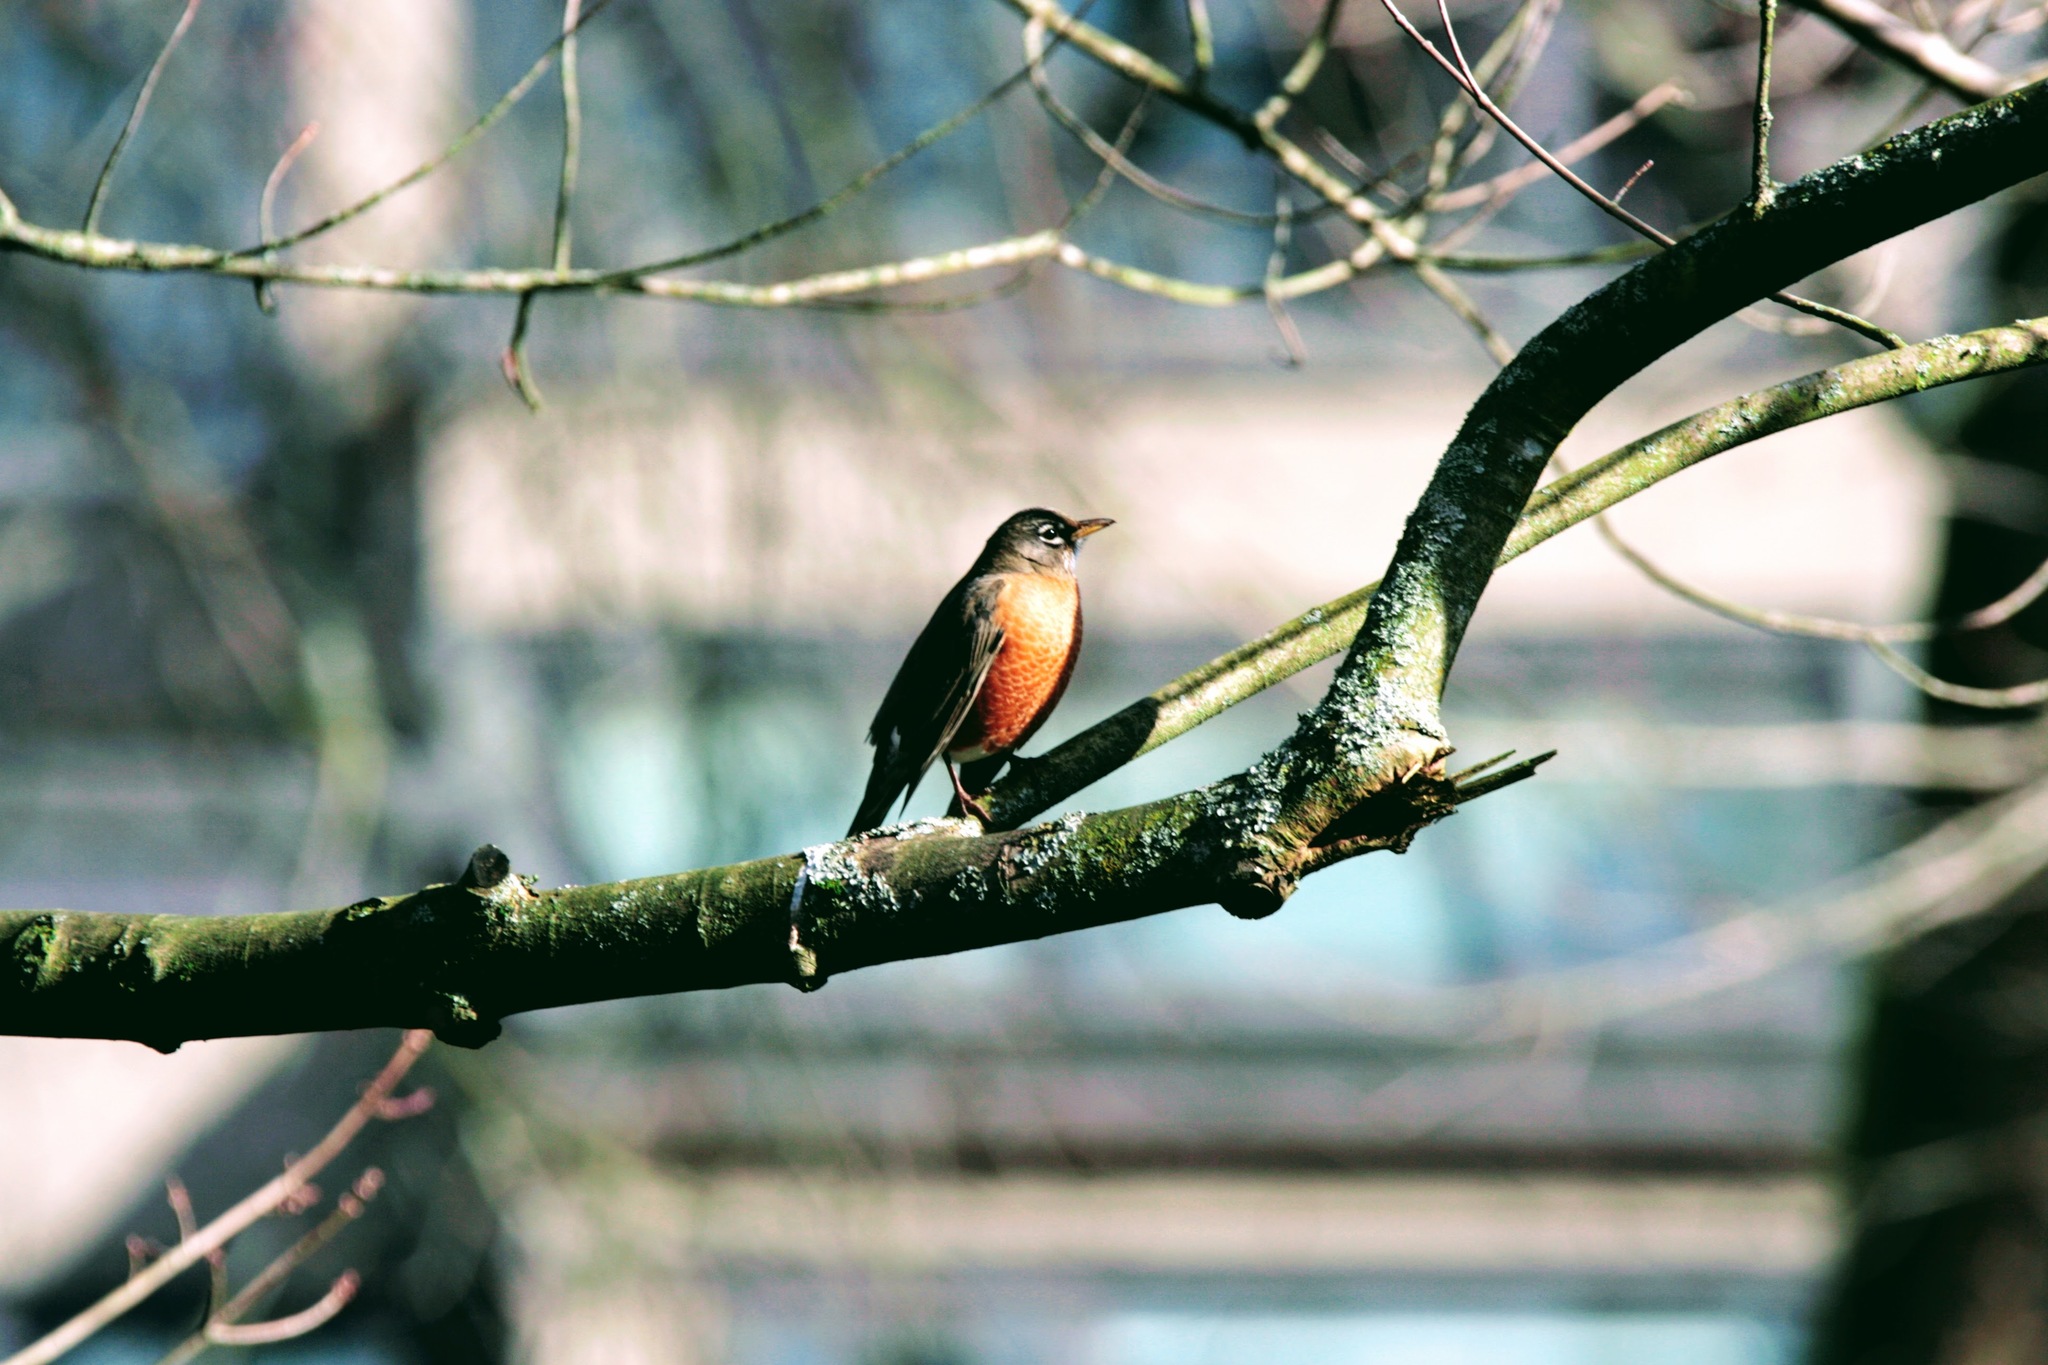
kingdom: Animalia
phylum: Chordata
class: Aves
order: Passeriformes
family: Turdidae
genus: Turdus
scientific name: Turdus migratorius
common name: American robin
